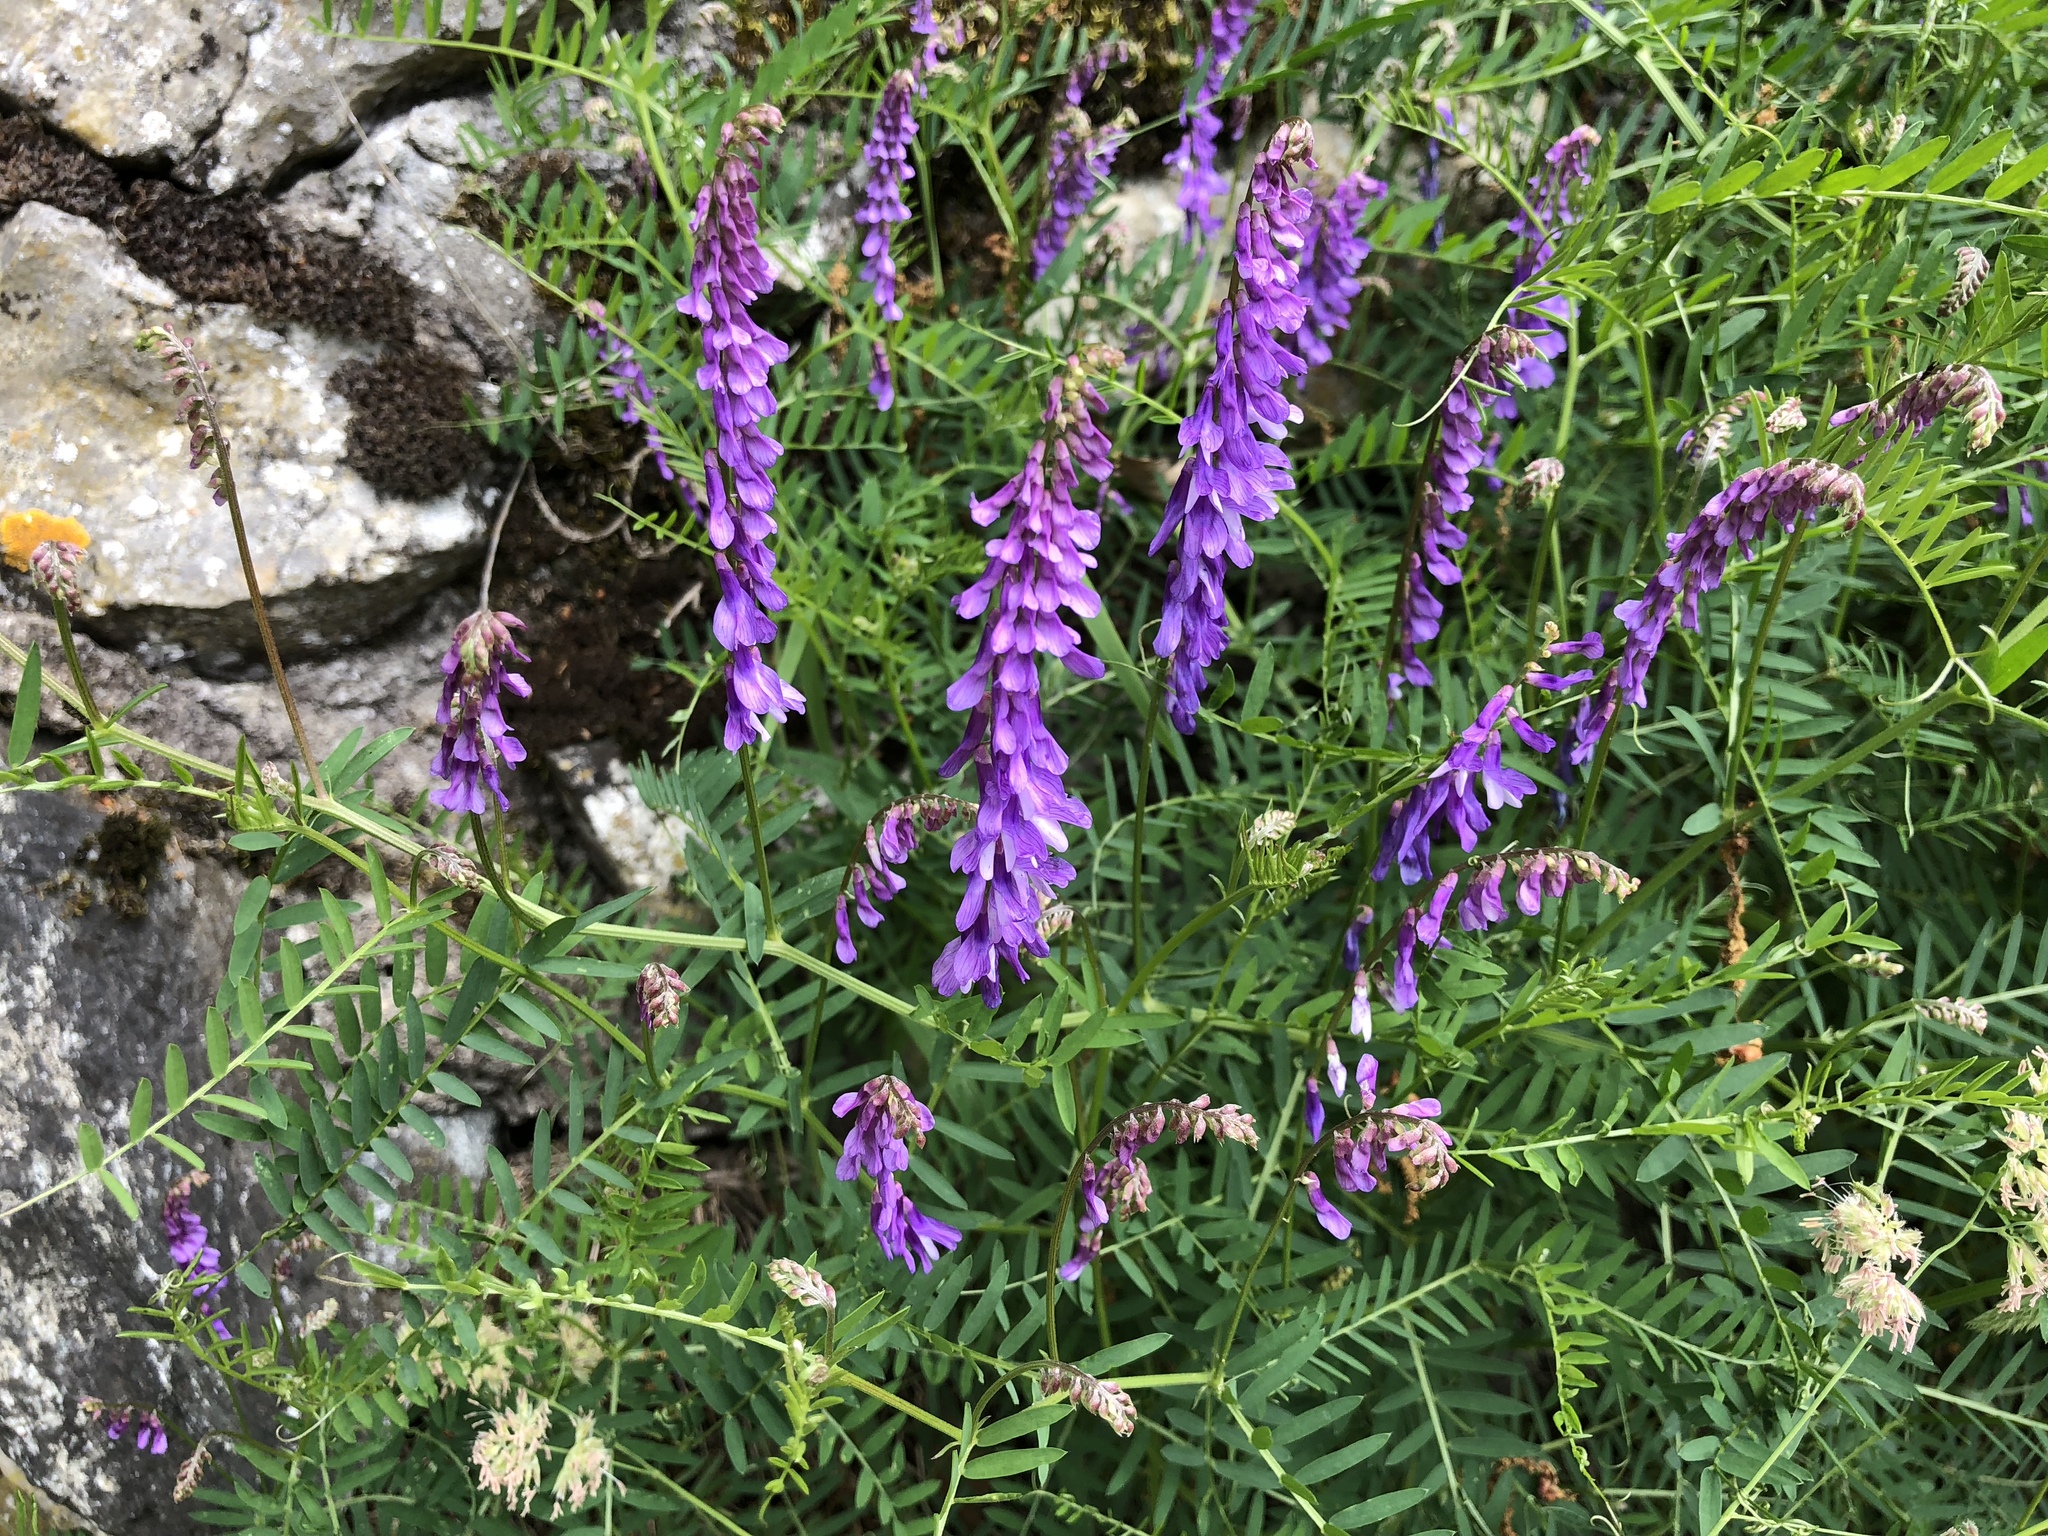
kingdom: Plantae
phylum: Tracheophyta
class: Magnoliopsida
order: Fabales
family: Fabaceae
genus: Vicia
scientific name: Vicia cracca
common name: Bird vetch
